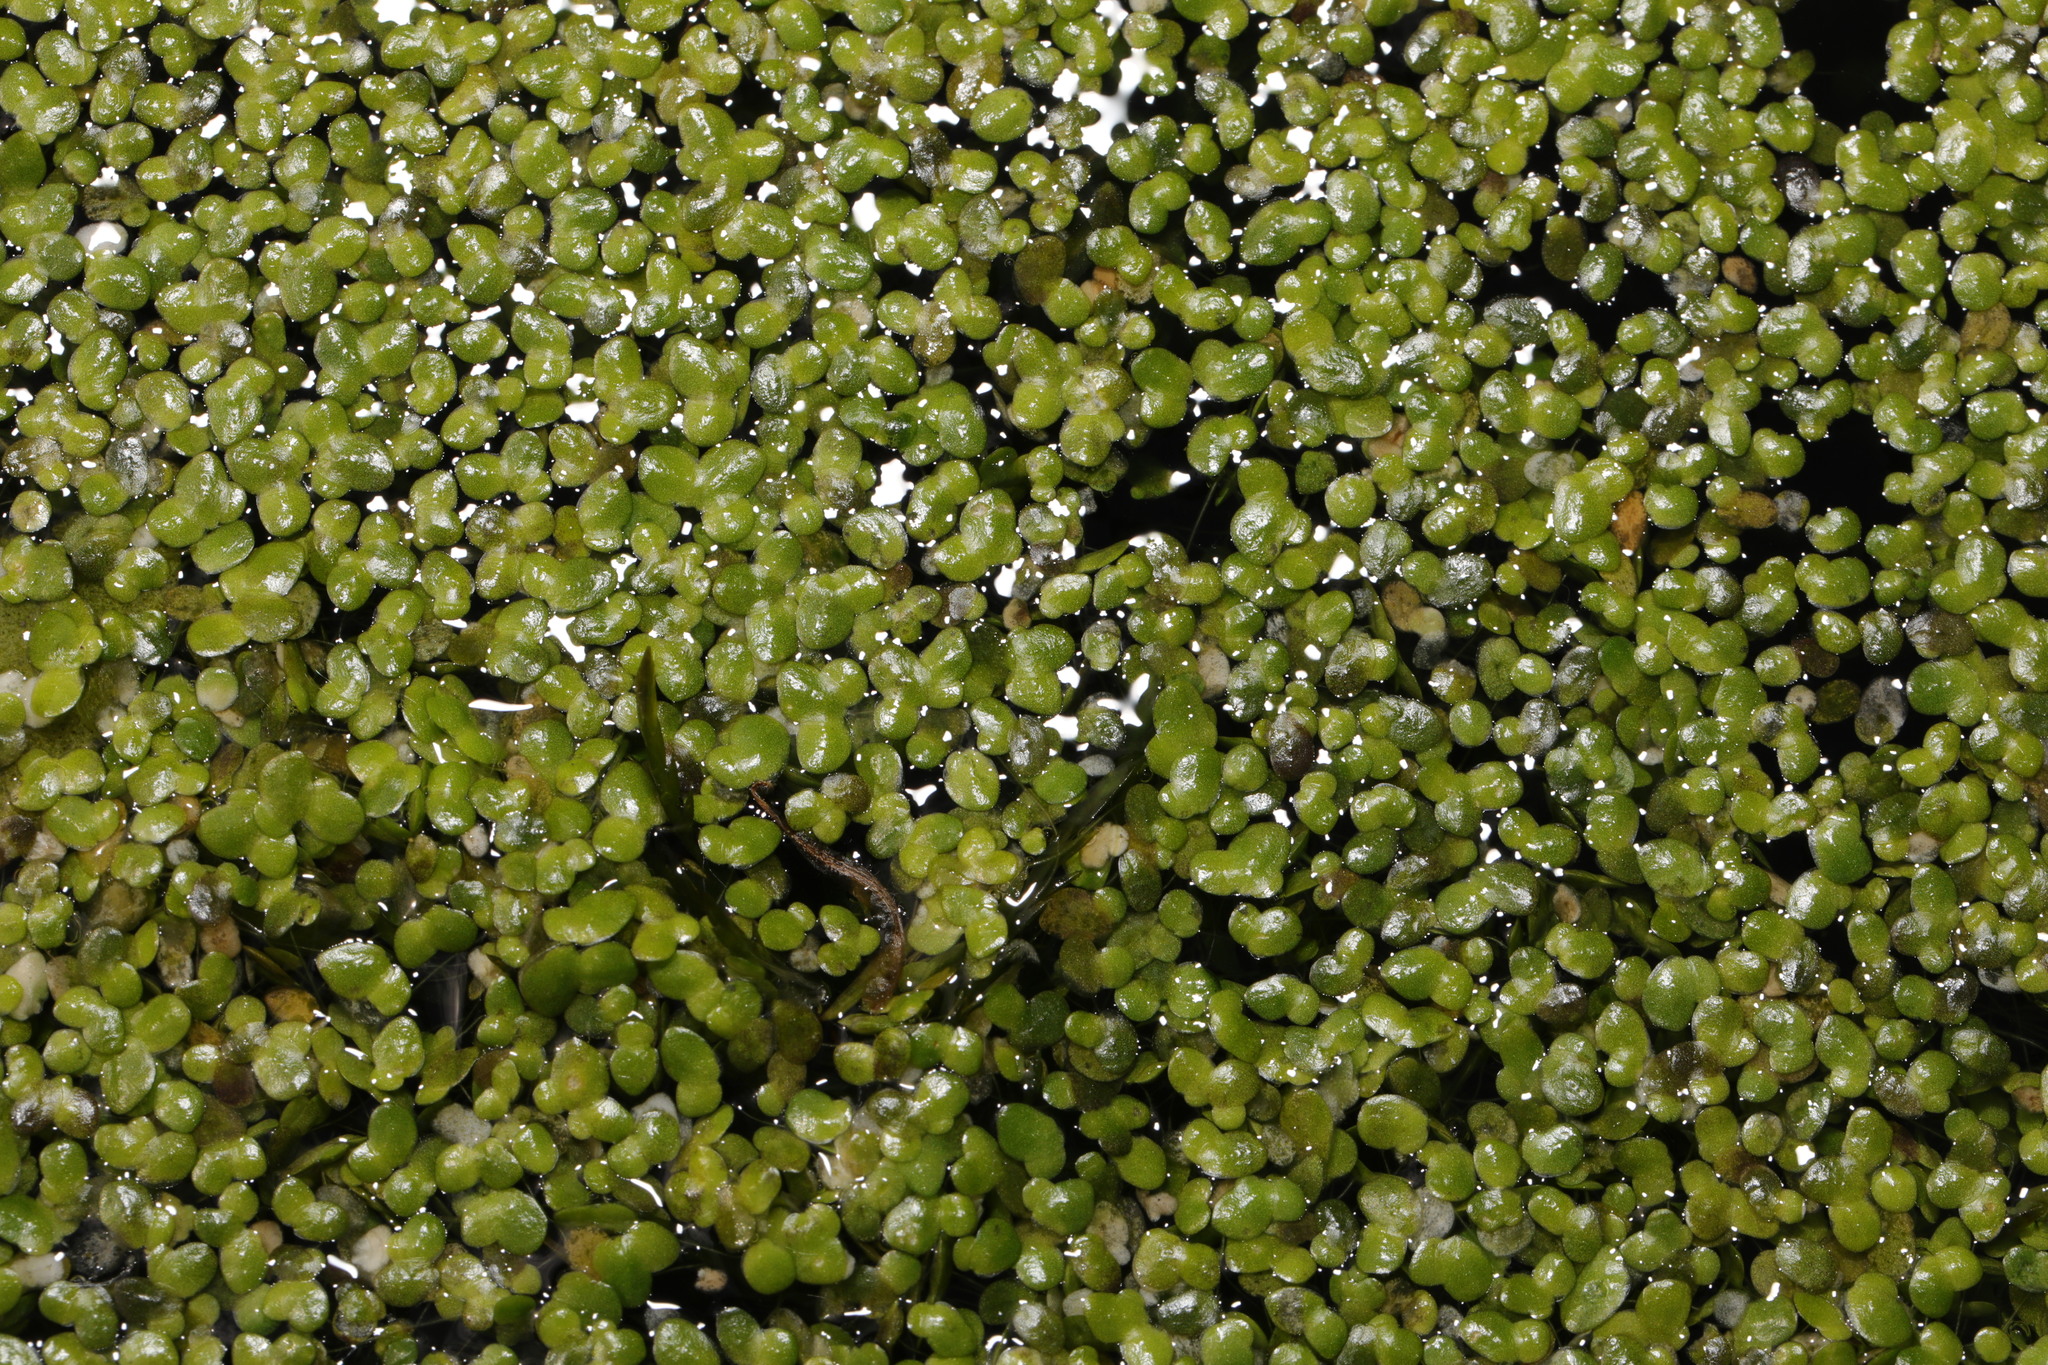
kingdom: Plantae
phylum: Tracheophyta
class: Liliopsida
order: Alismatales
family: Araceae
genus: Lemna
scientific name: Lemna minor
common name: Common duckweed
